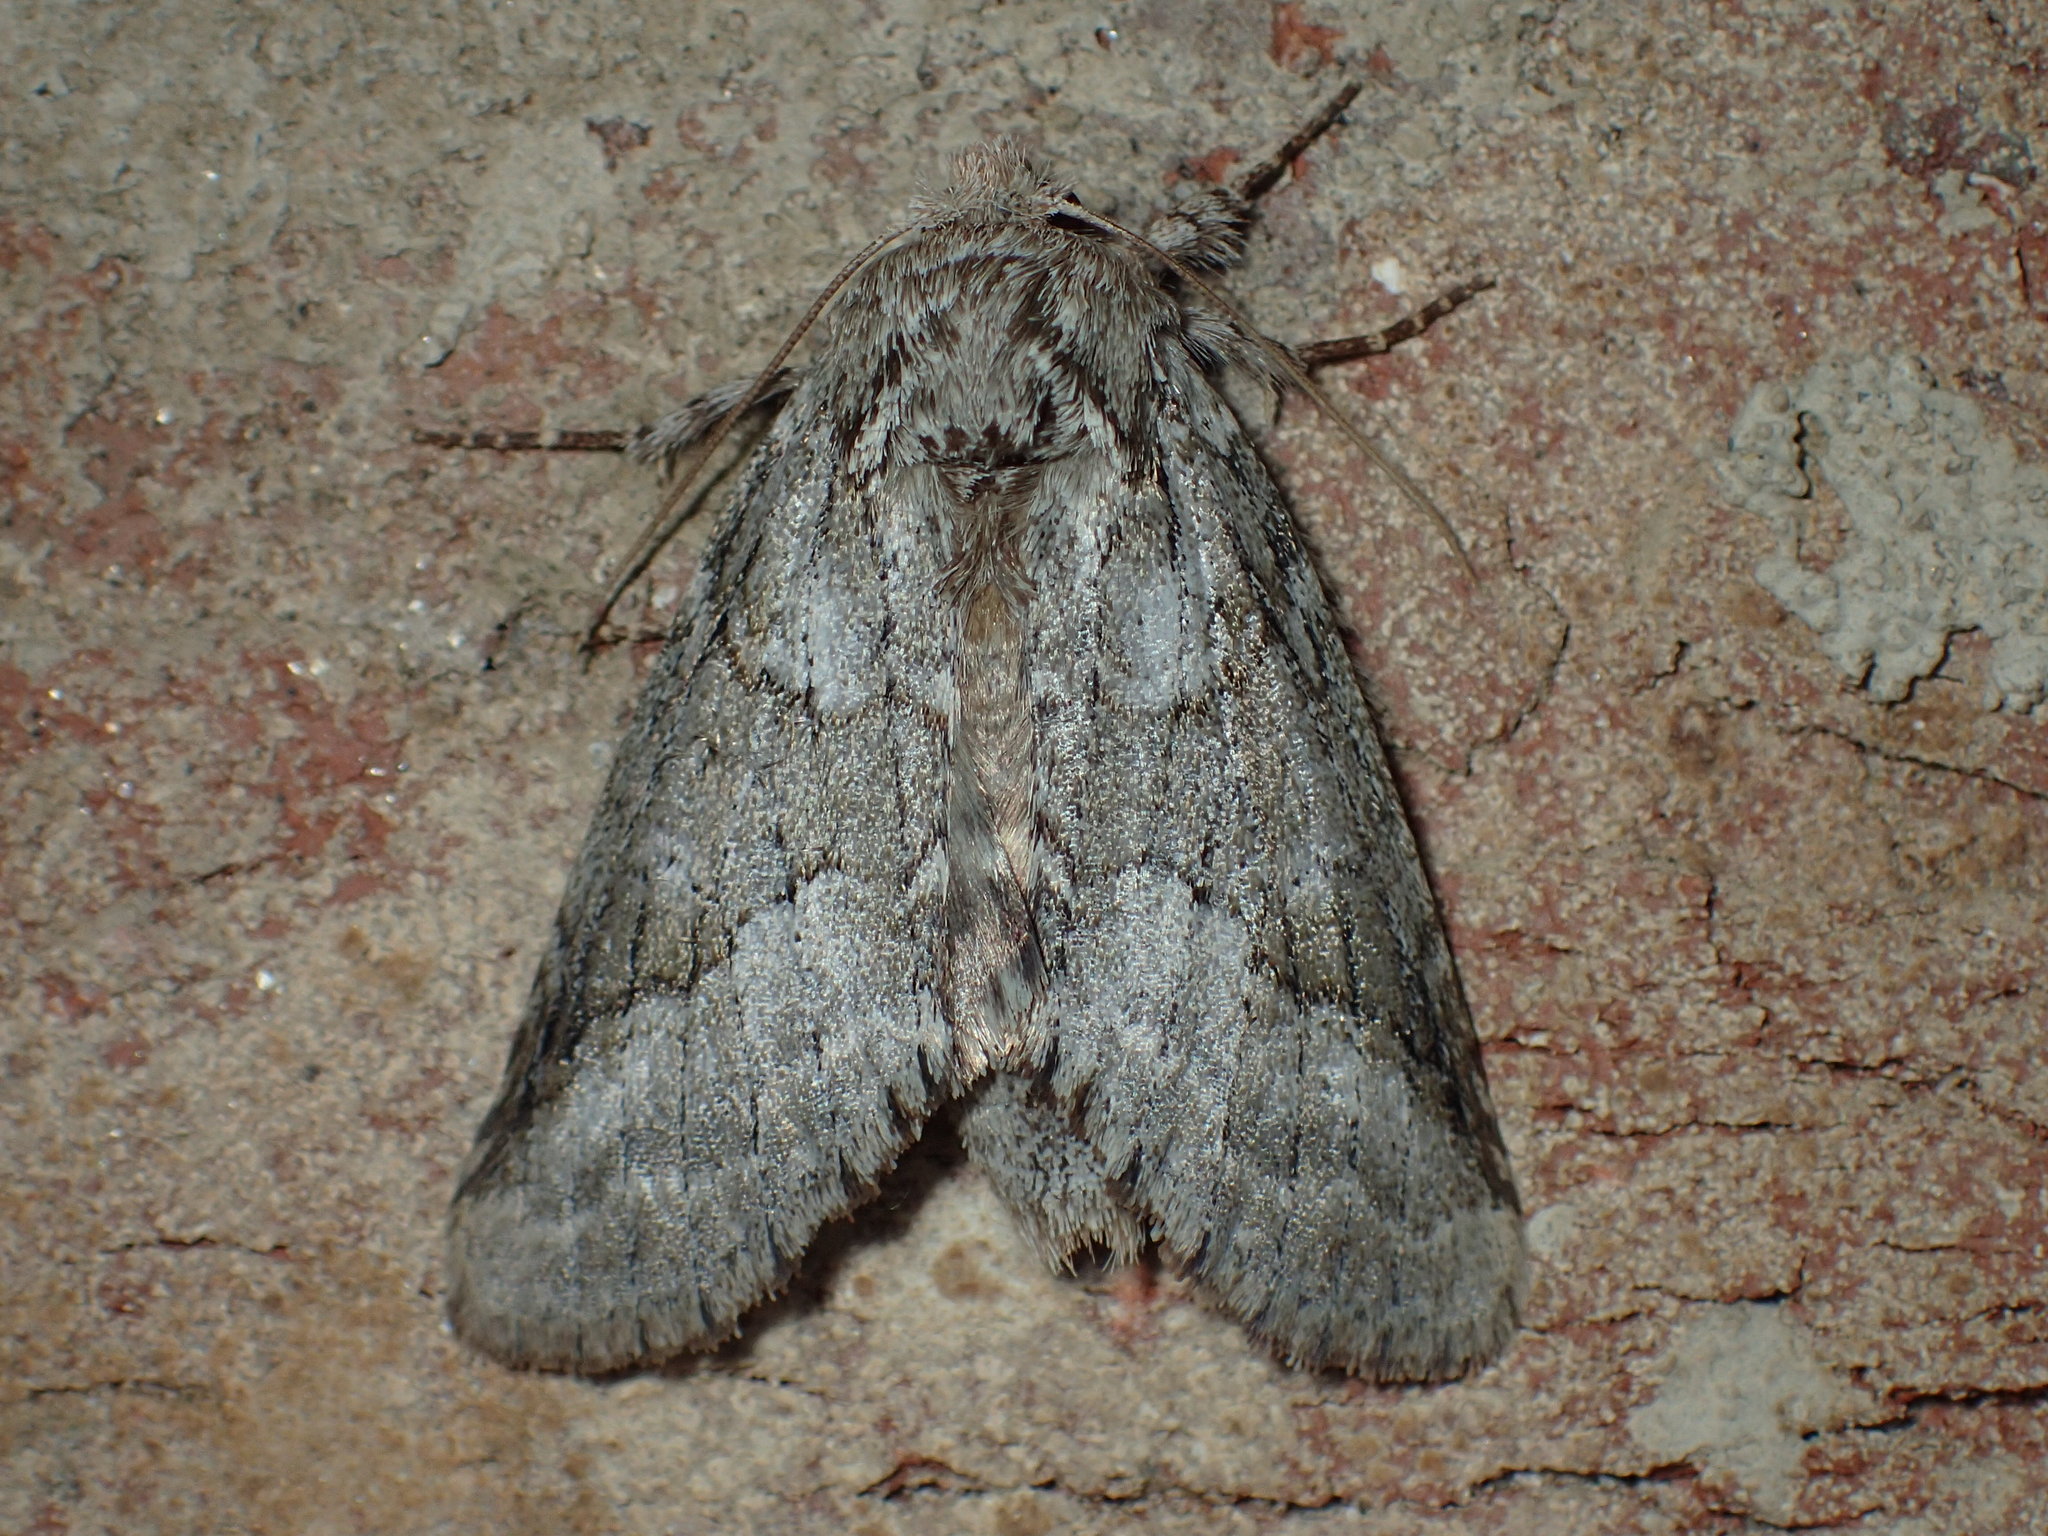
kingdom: Animalia
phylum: Arthropoda
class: Insecta
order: Lepidoptera
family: Notodontidae
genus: Lochmaeus
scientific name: Lochmaeus bilineata
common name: Double-lined prominent
